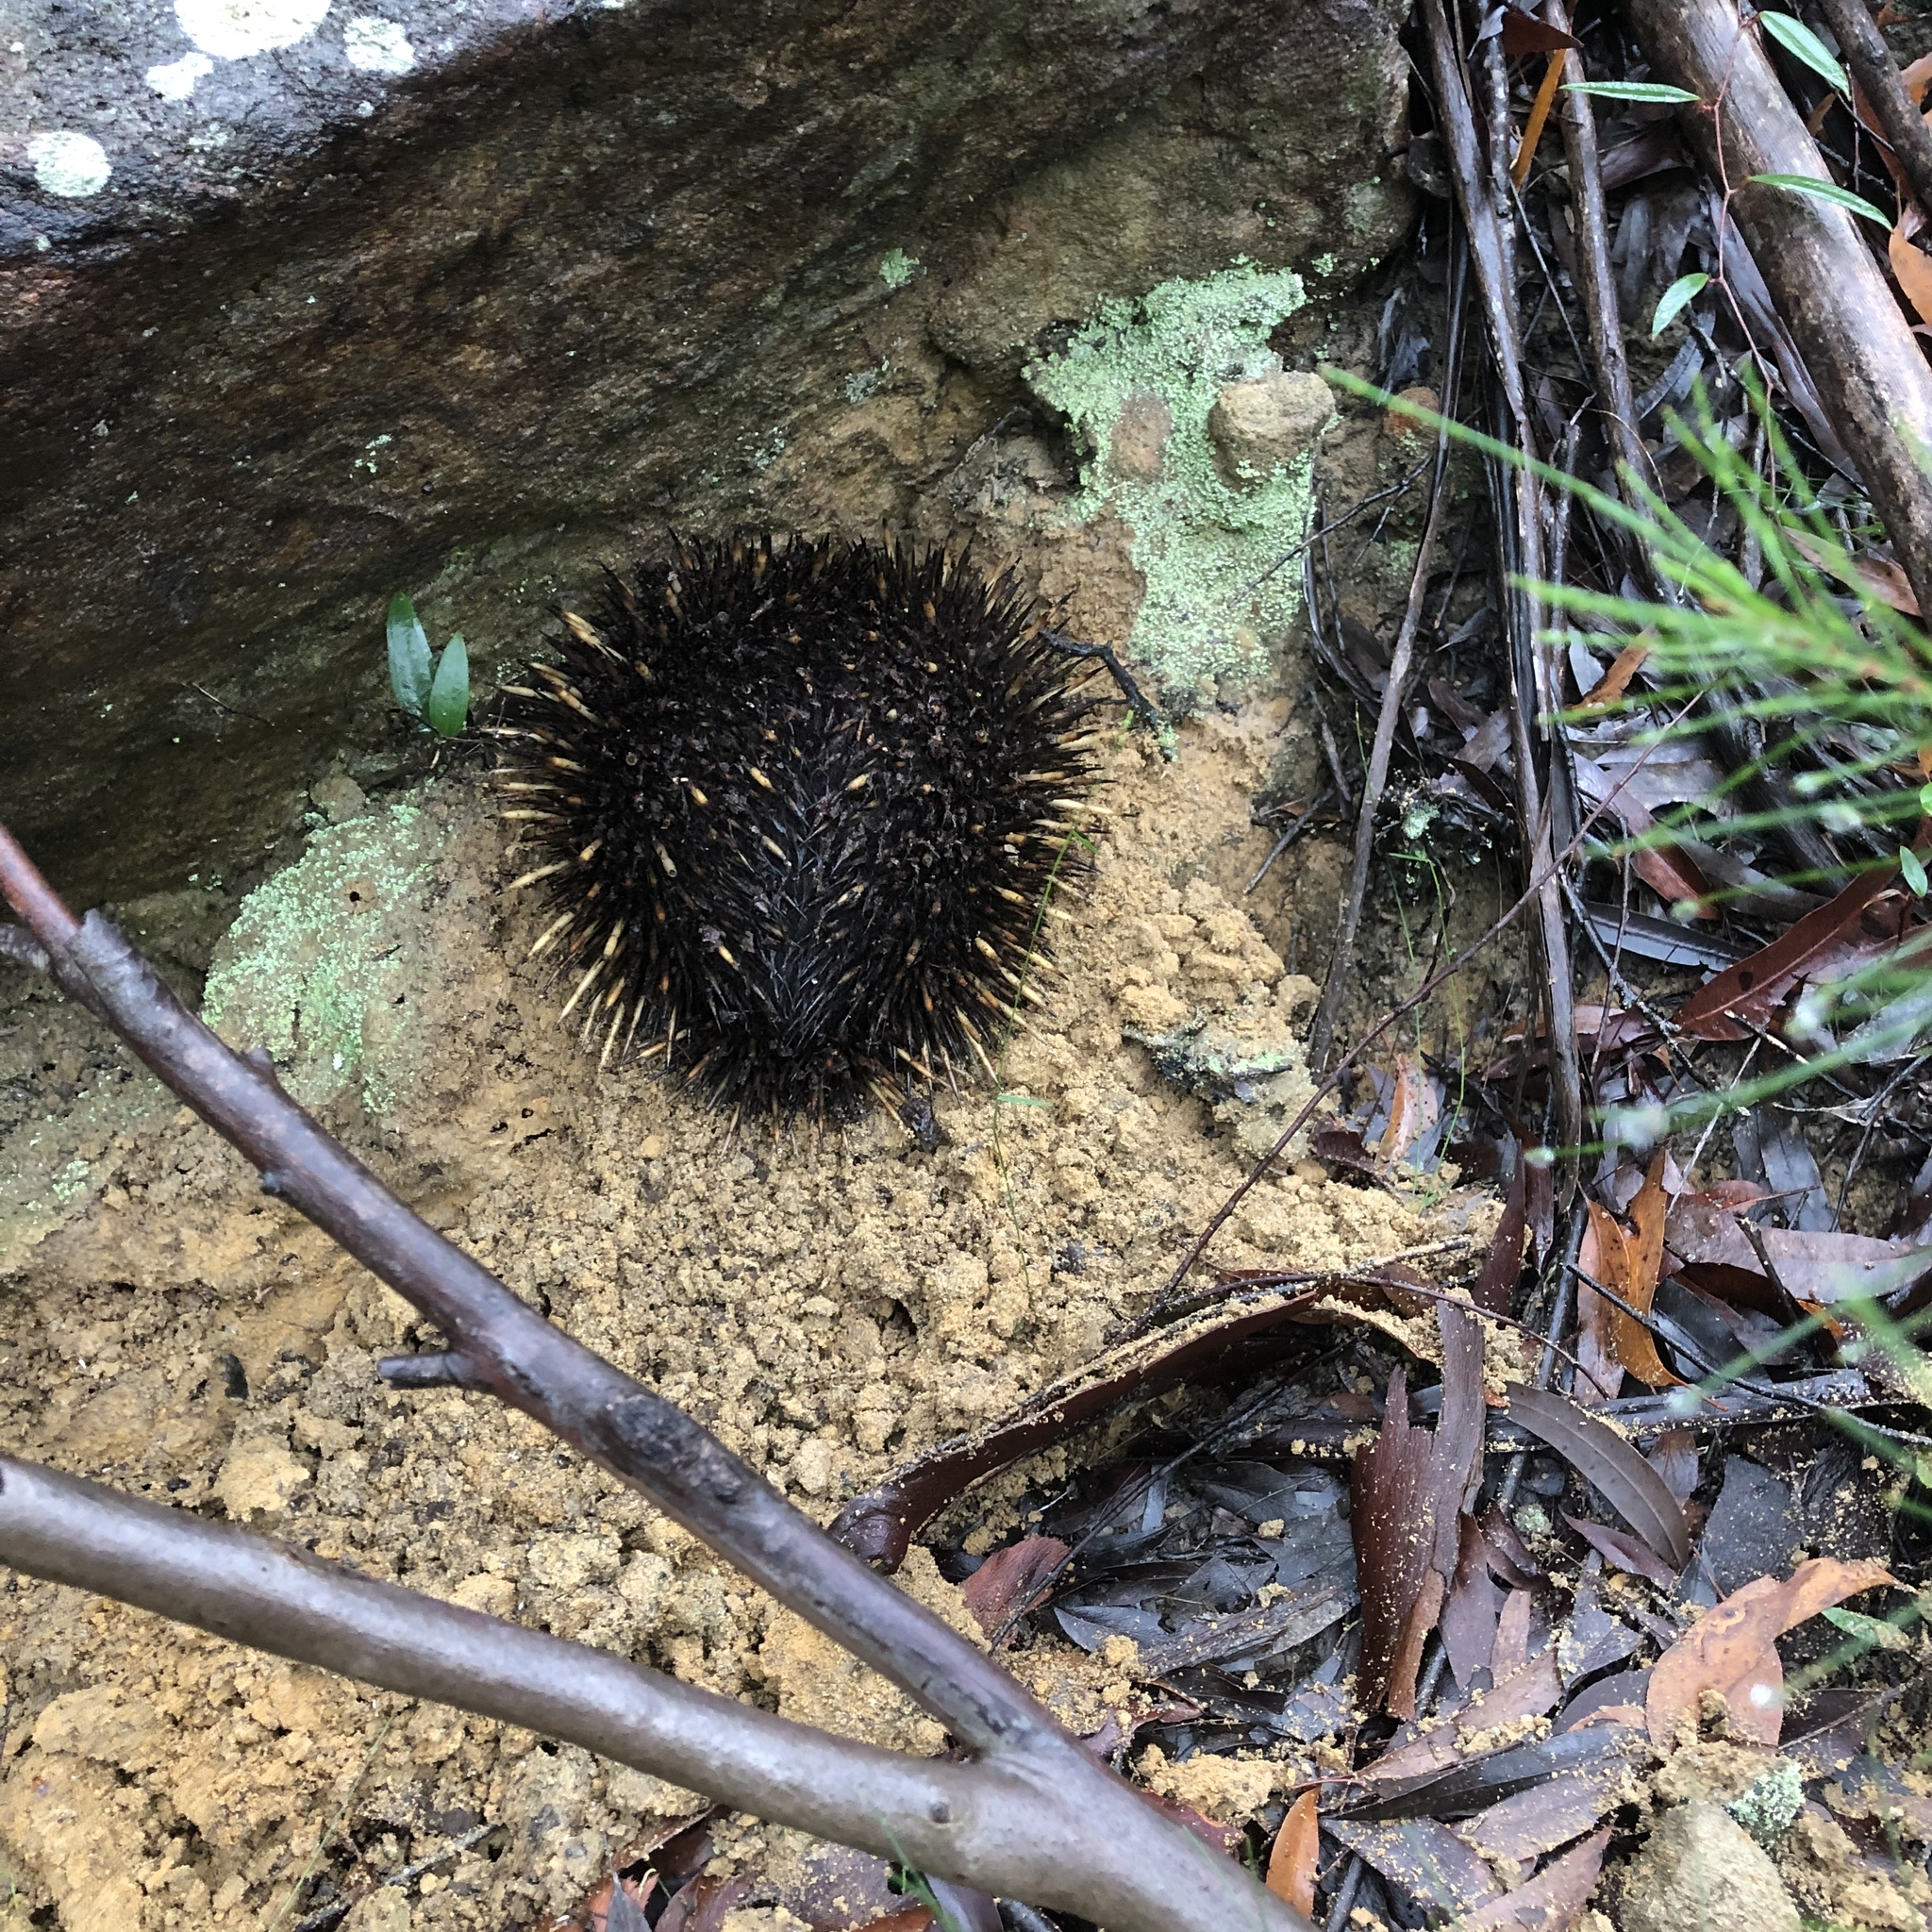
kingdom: Animalia
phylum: Chordata
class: Mammalia
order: Monotremata
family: Tachyglossidae
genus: Tachyglossus
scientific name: Tachyglossus aculeatus
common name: Short-beaked echidna
